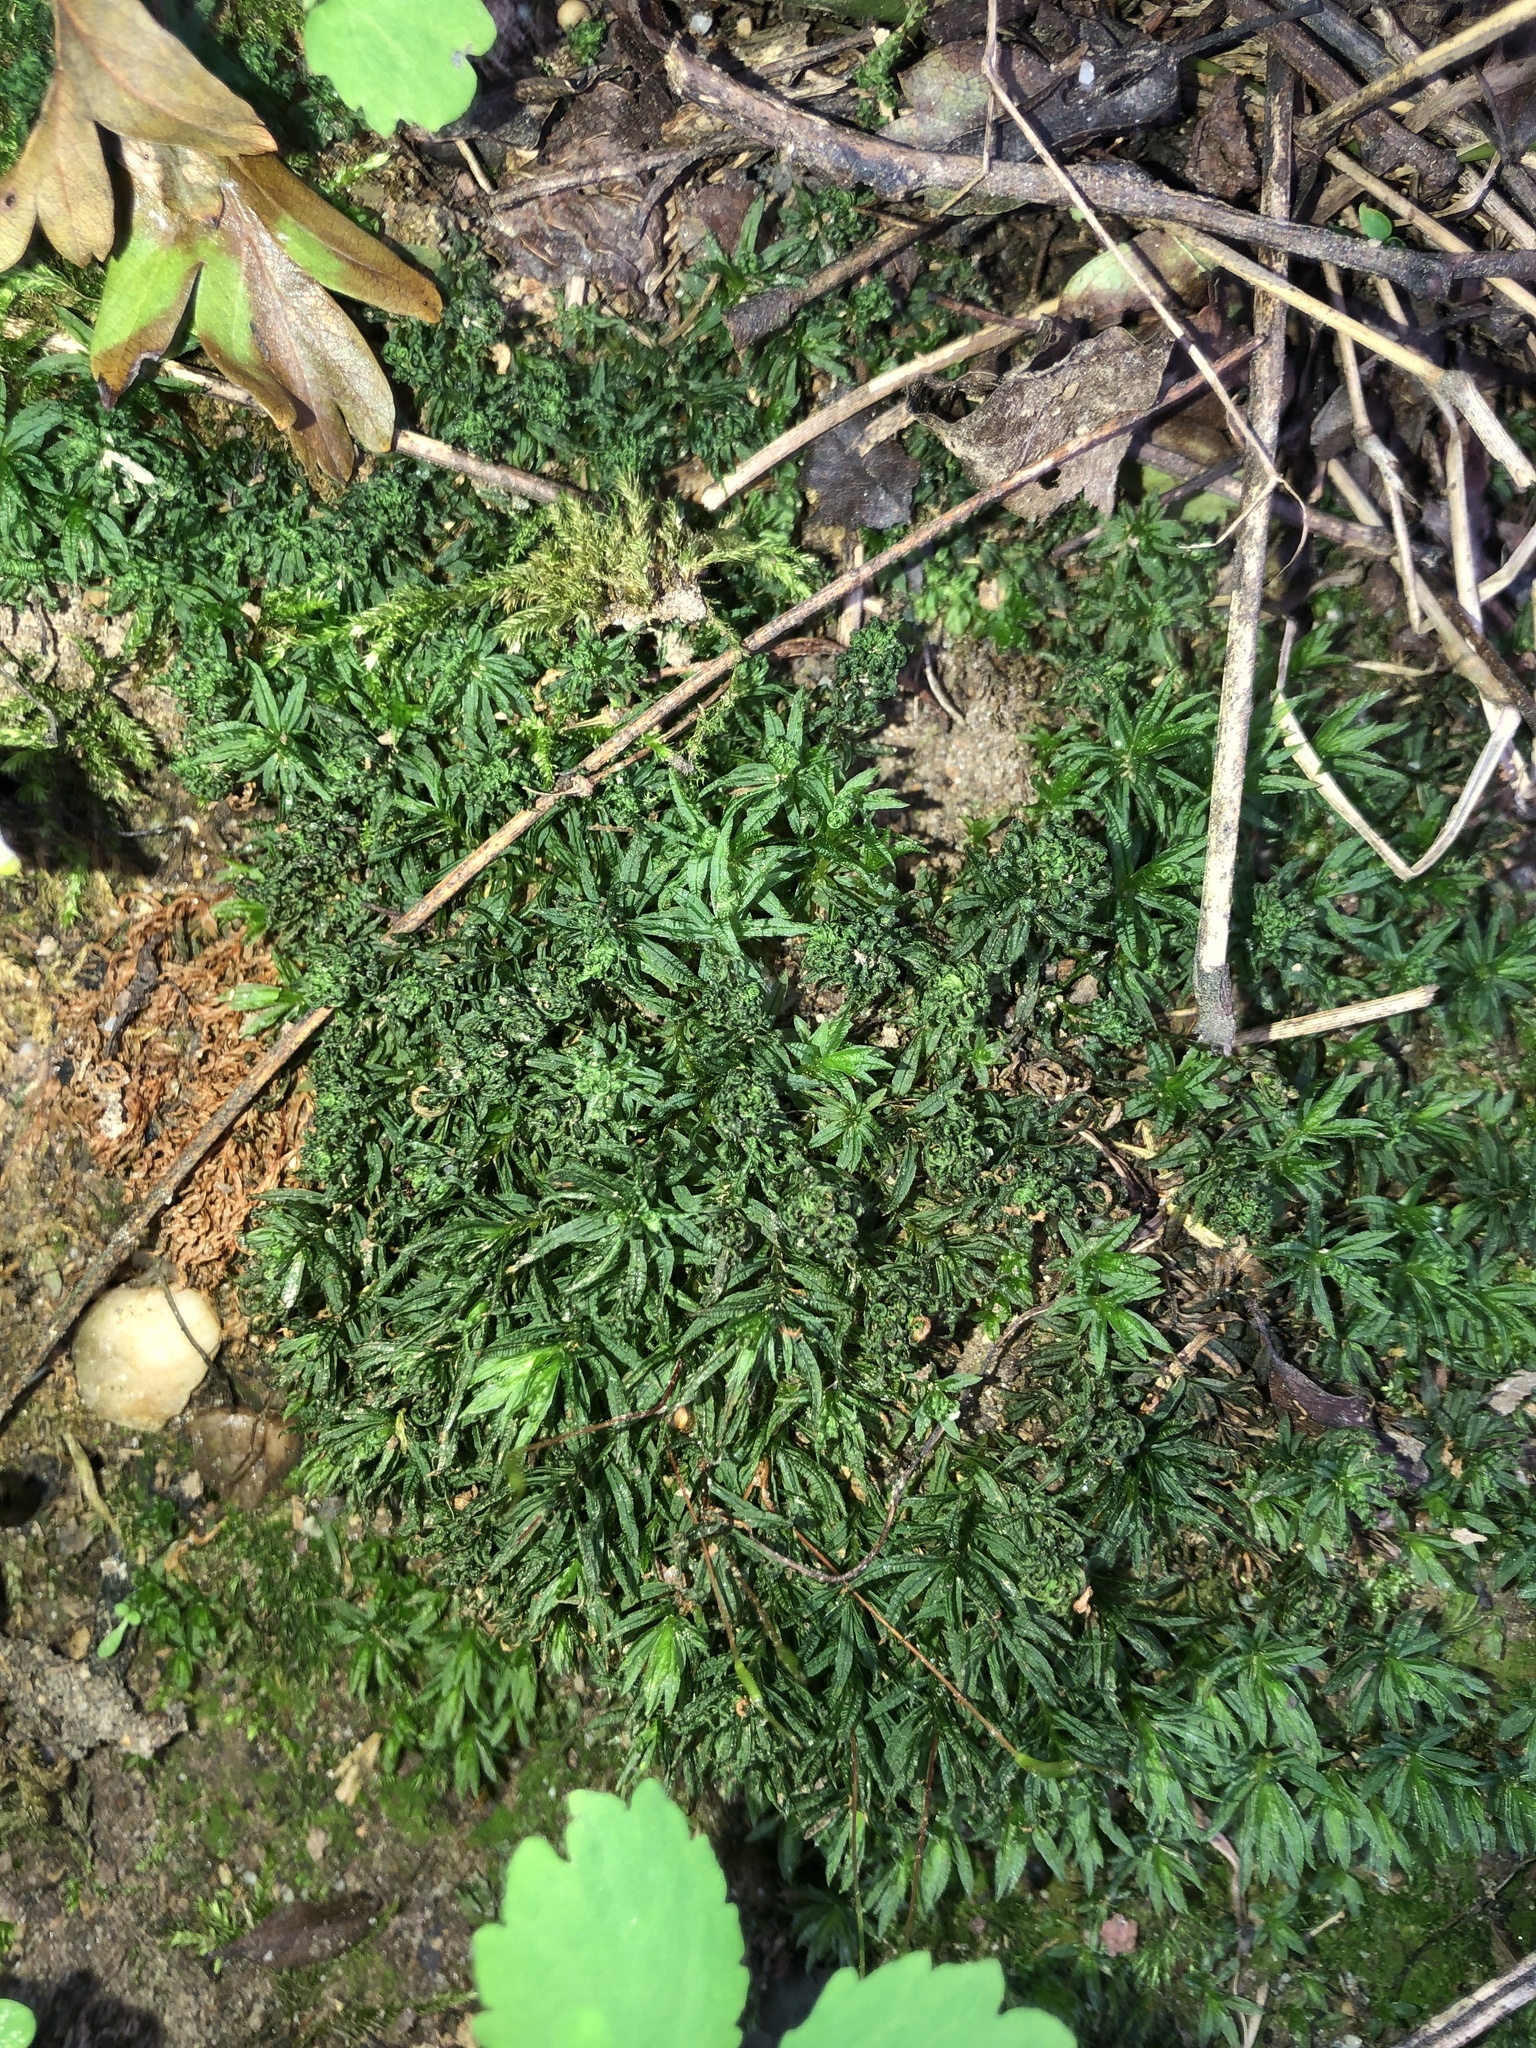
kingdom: Plantae
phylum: Bryophyta
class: Polytrichopsida
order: Polytrichales
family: Polytrichaceae
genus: Atrichum
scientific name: Atrichum undulatum
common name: Common smoothcap
